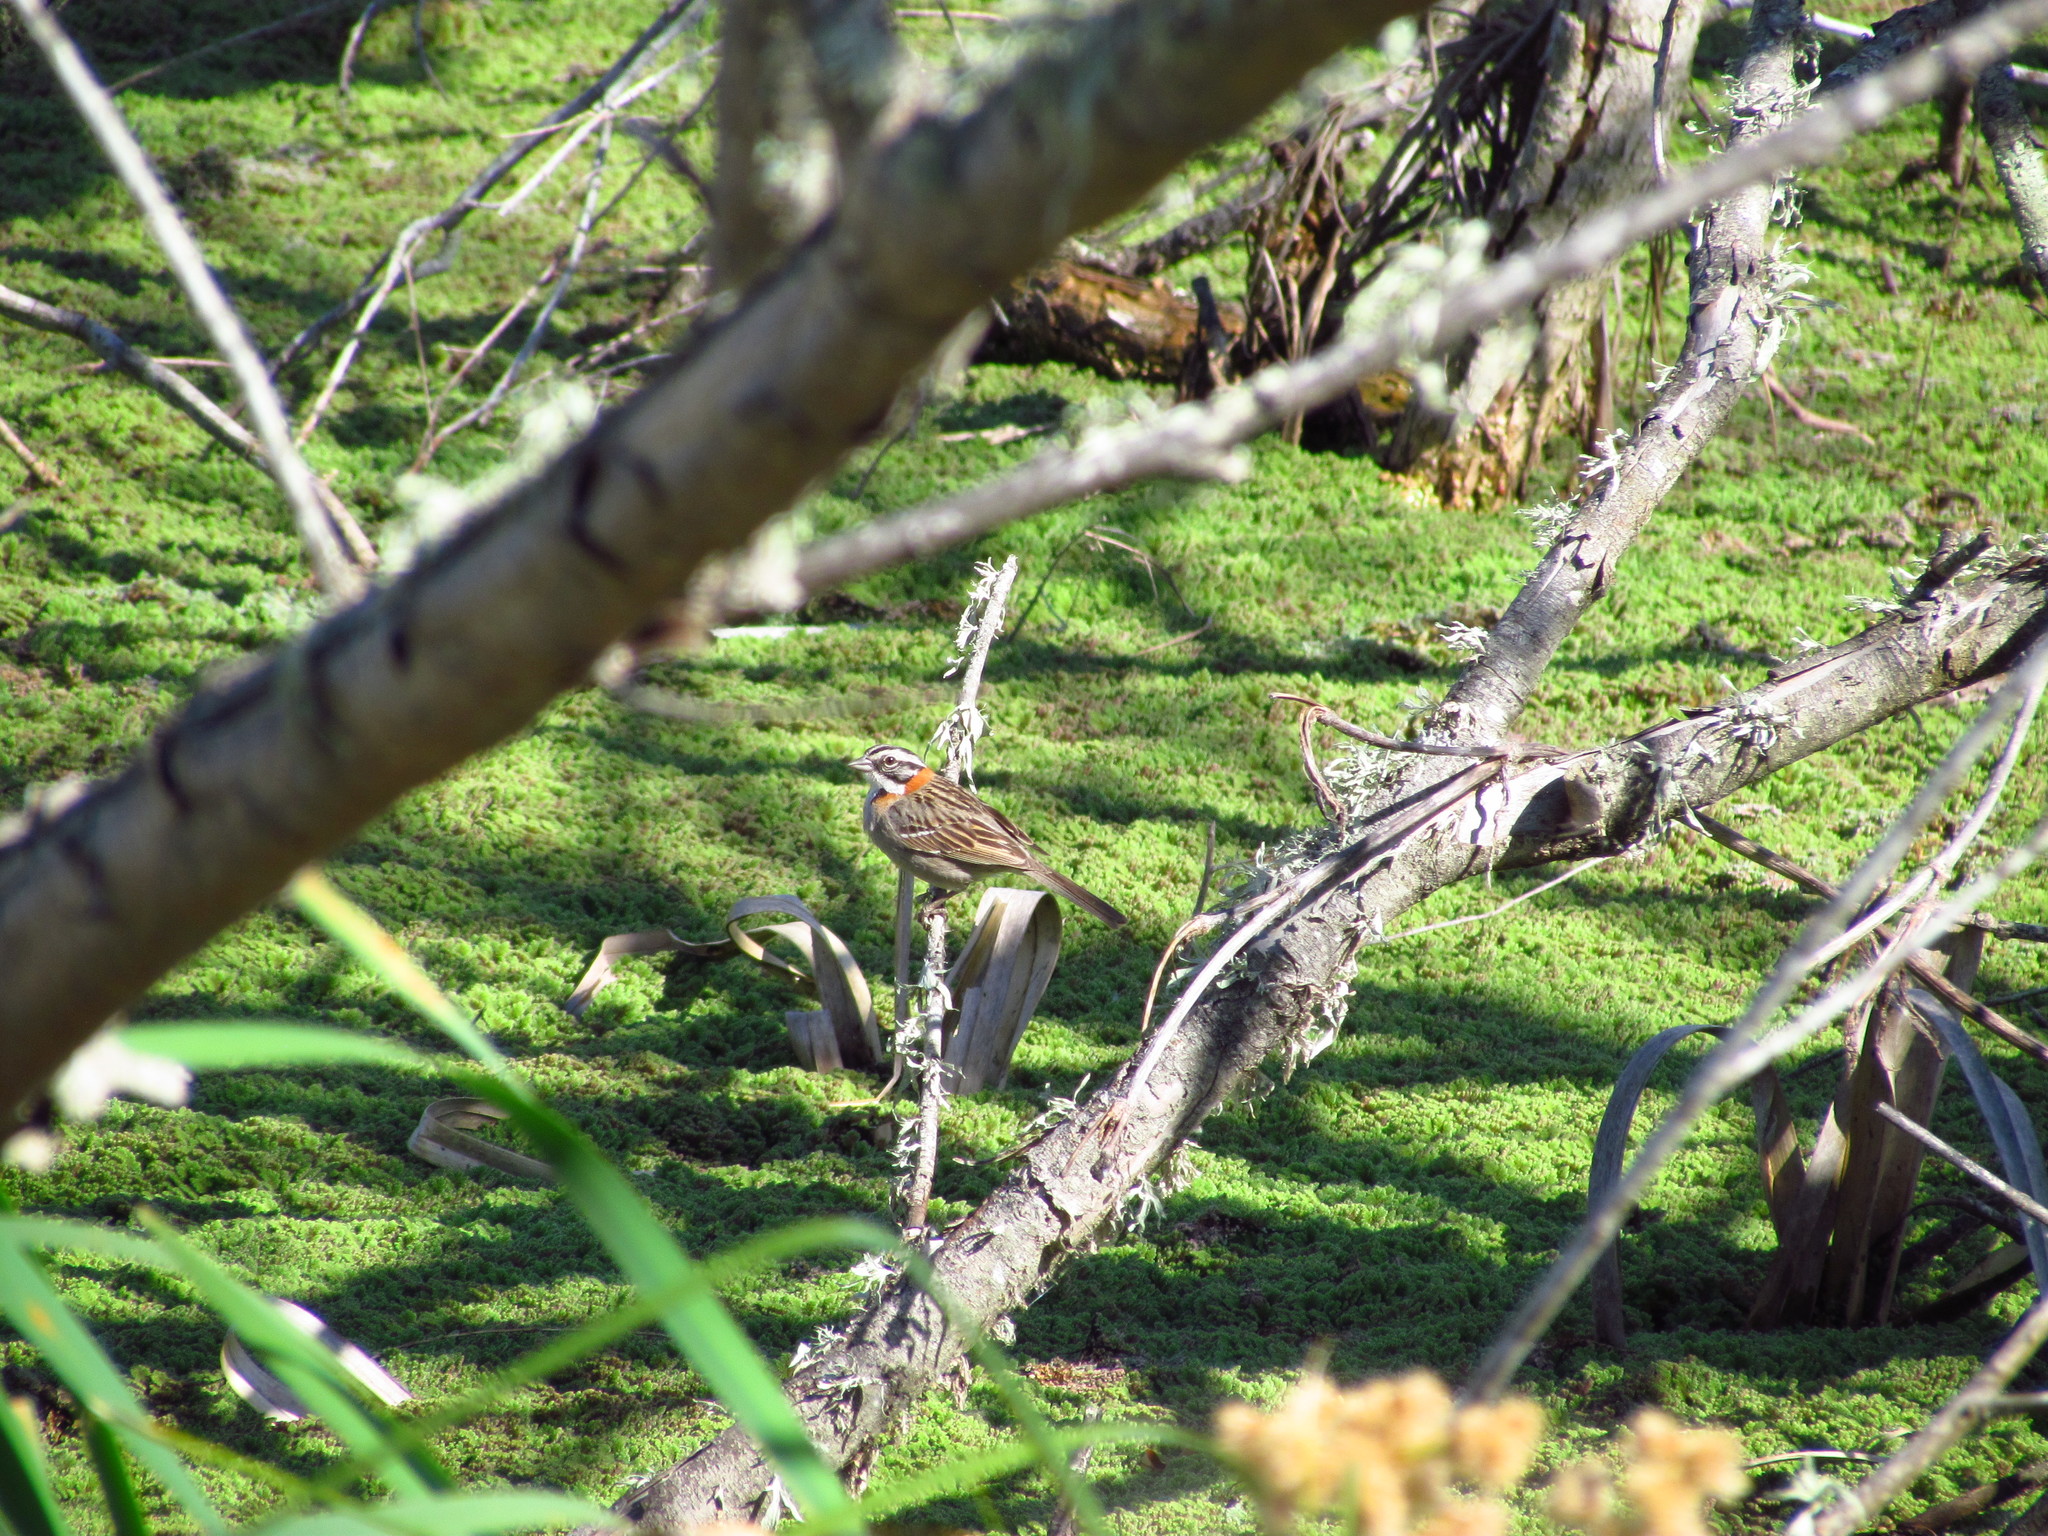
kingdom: Animalia
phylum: Chordata
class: Aves
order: Passeriformes
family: Passerellidae
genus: Zonotrichia
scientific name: Zonotrichia capensis
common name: Rufous-collared sparrow
